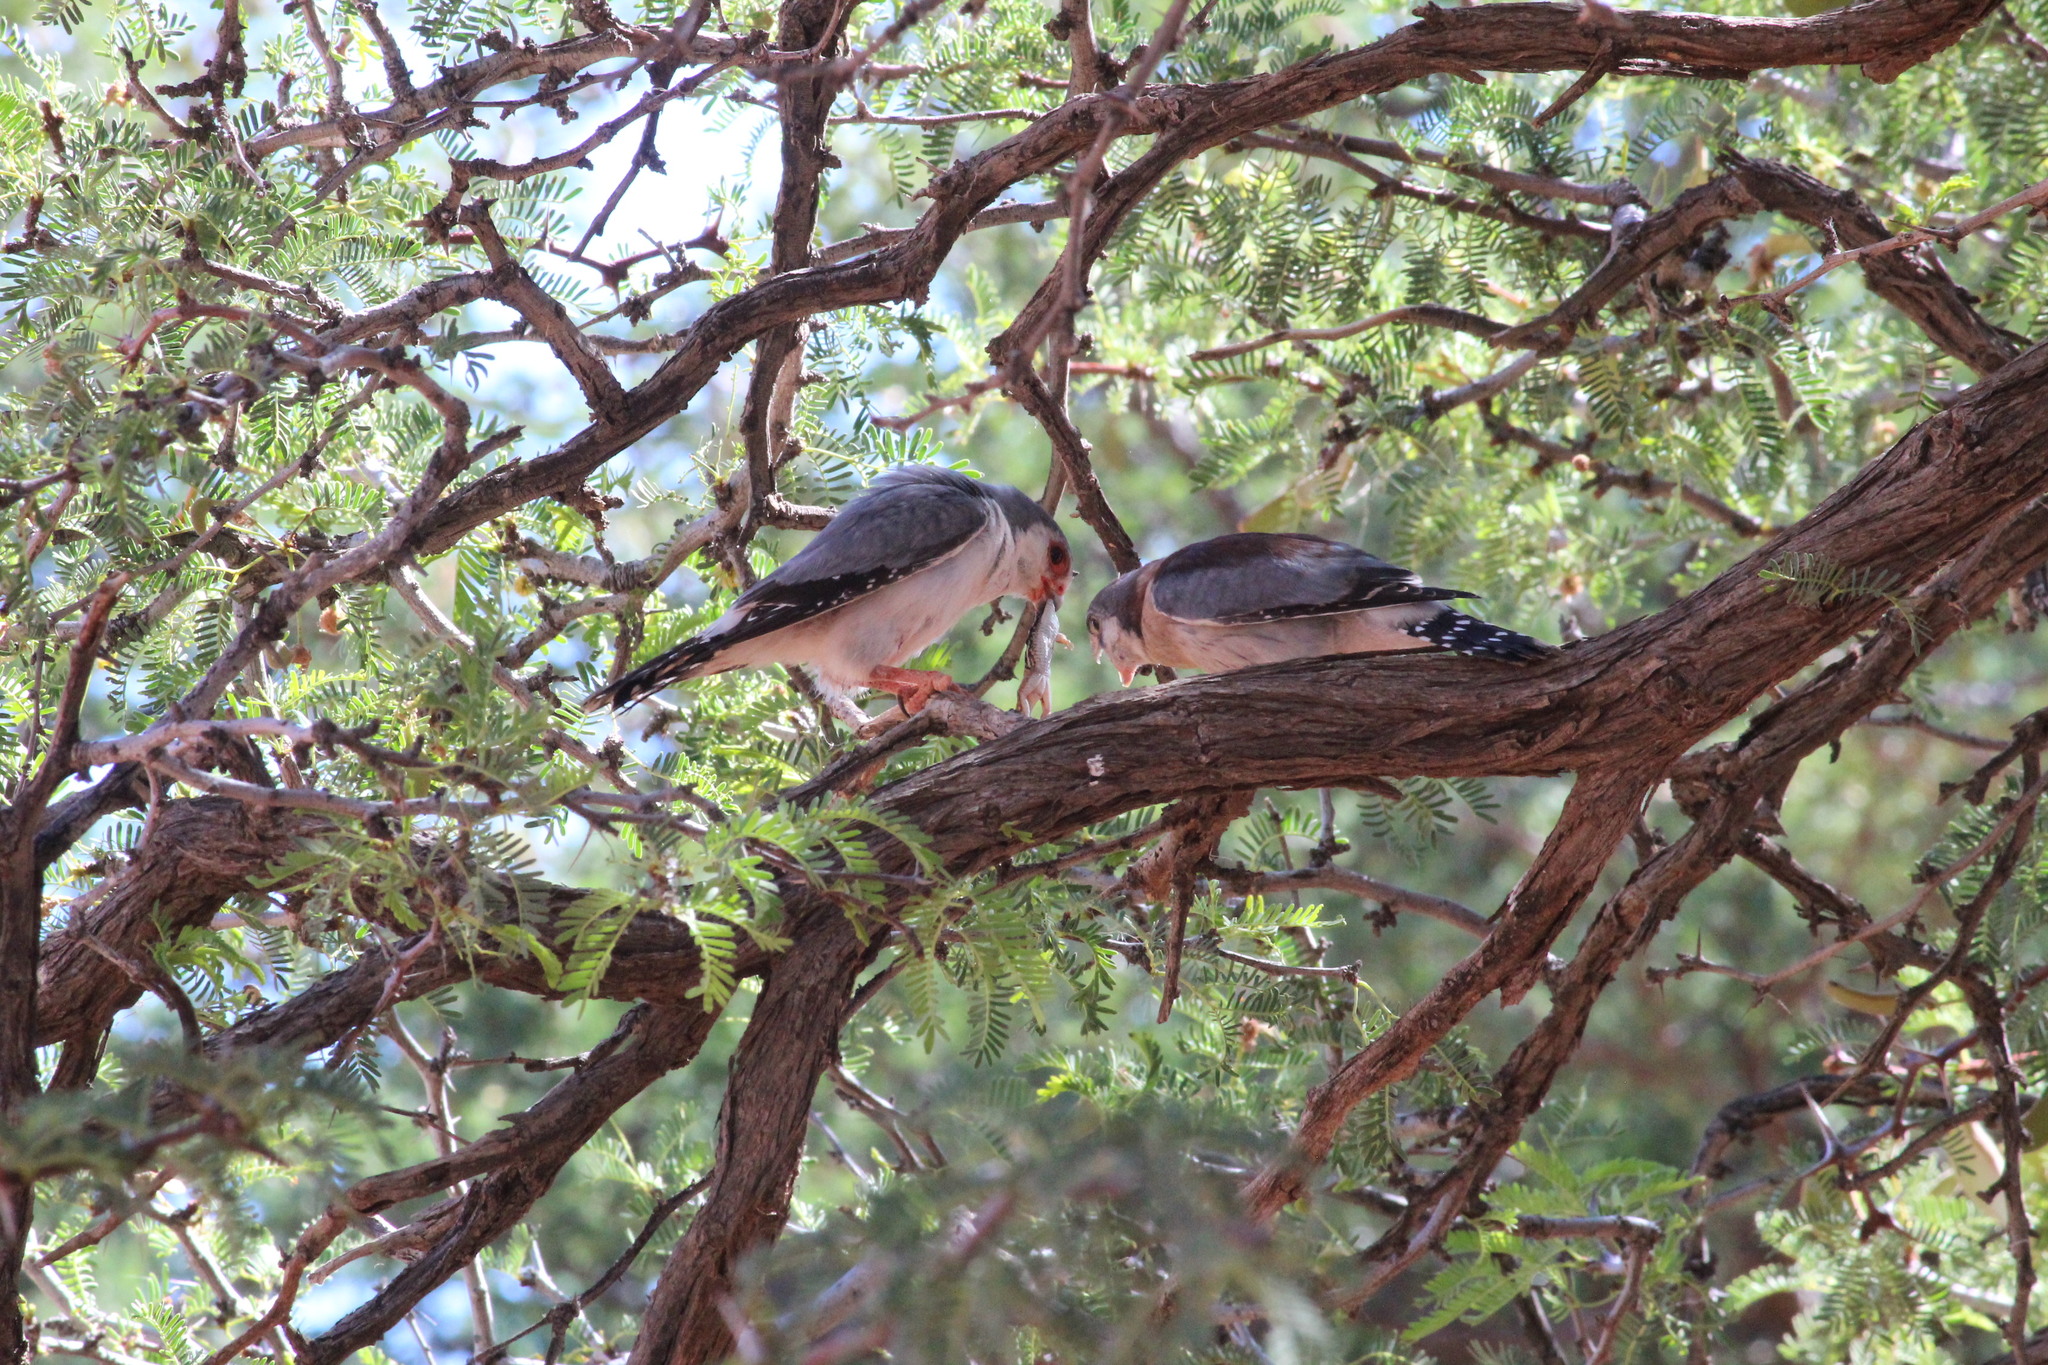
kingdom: Animalia
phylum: Chordata
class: Aves
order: Falconiformes
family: Falconidae
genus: Polihierax
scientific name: Polihierax semitorquatus
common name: Pygmy falcon
